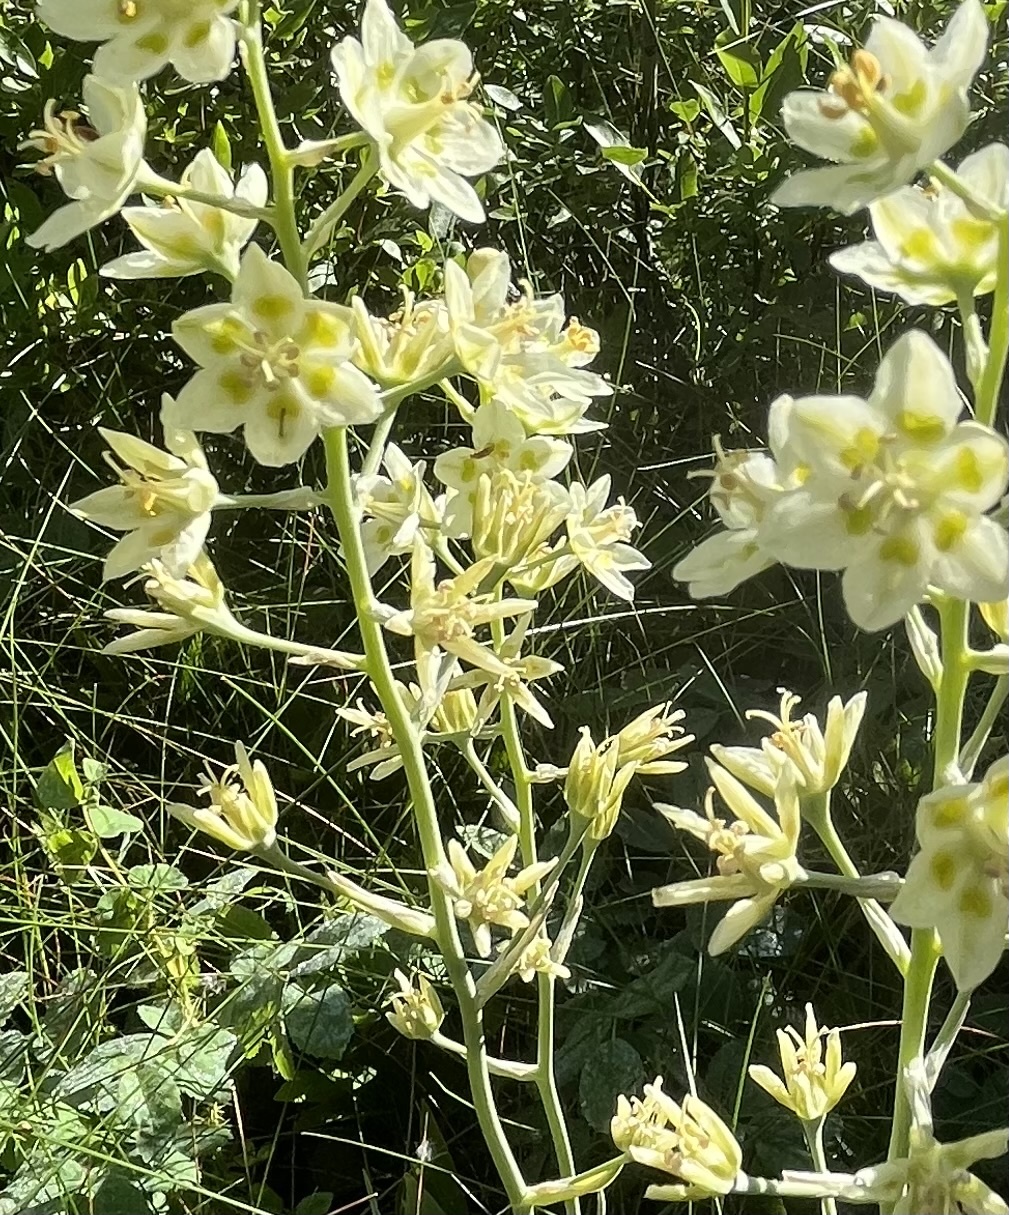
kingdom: Plantae
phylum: Tracheophyta
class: Liliopsida
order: Liliales
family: Melanthiaceae
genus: Anticlea
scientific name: Anticlea elegans
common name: Mountain death camas
